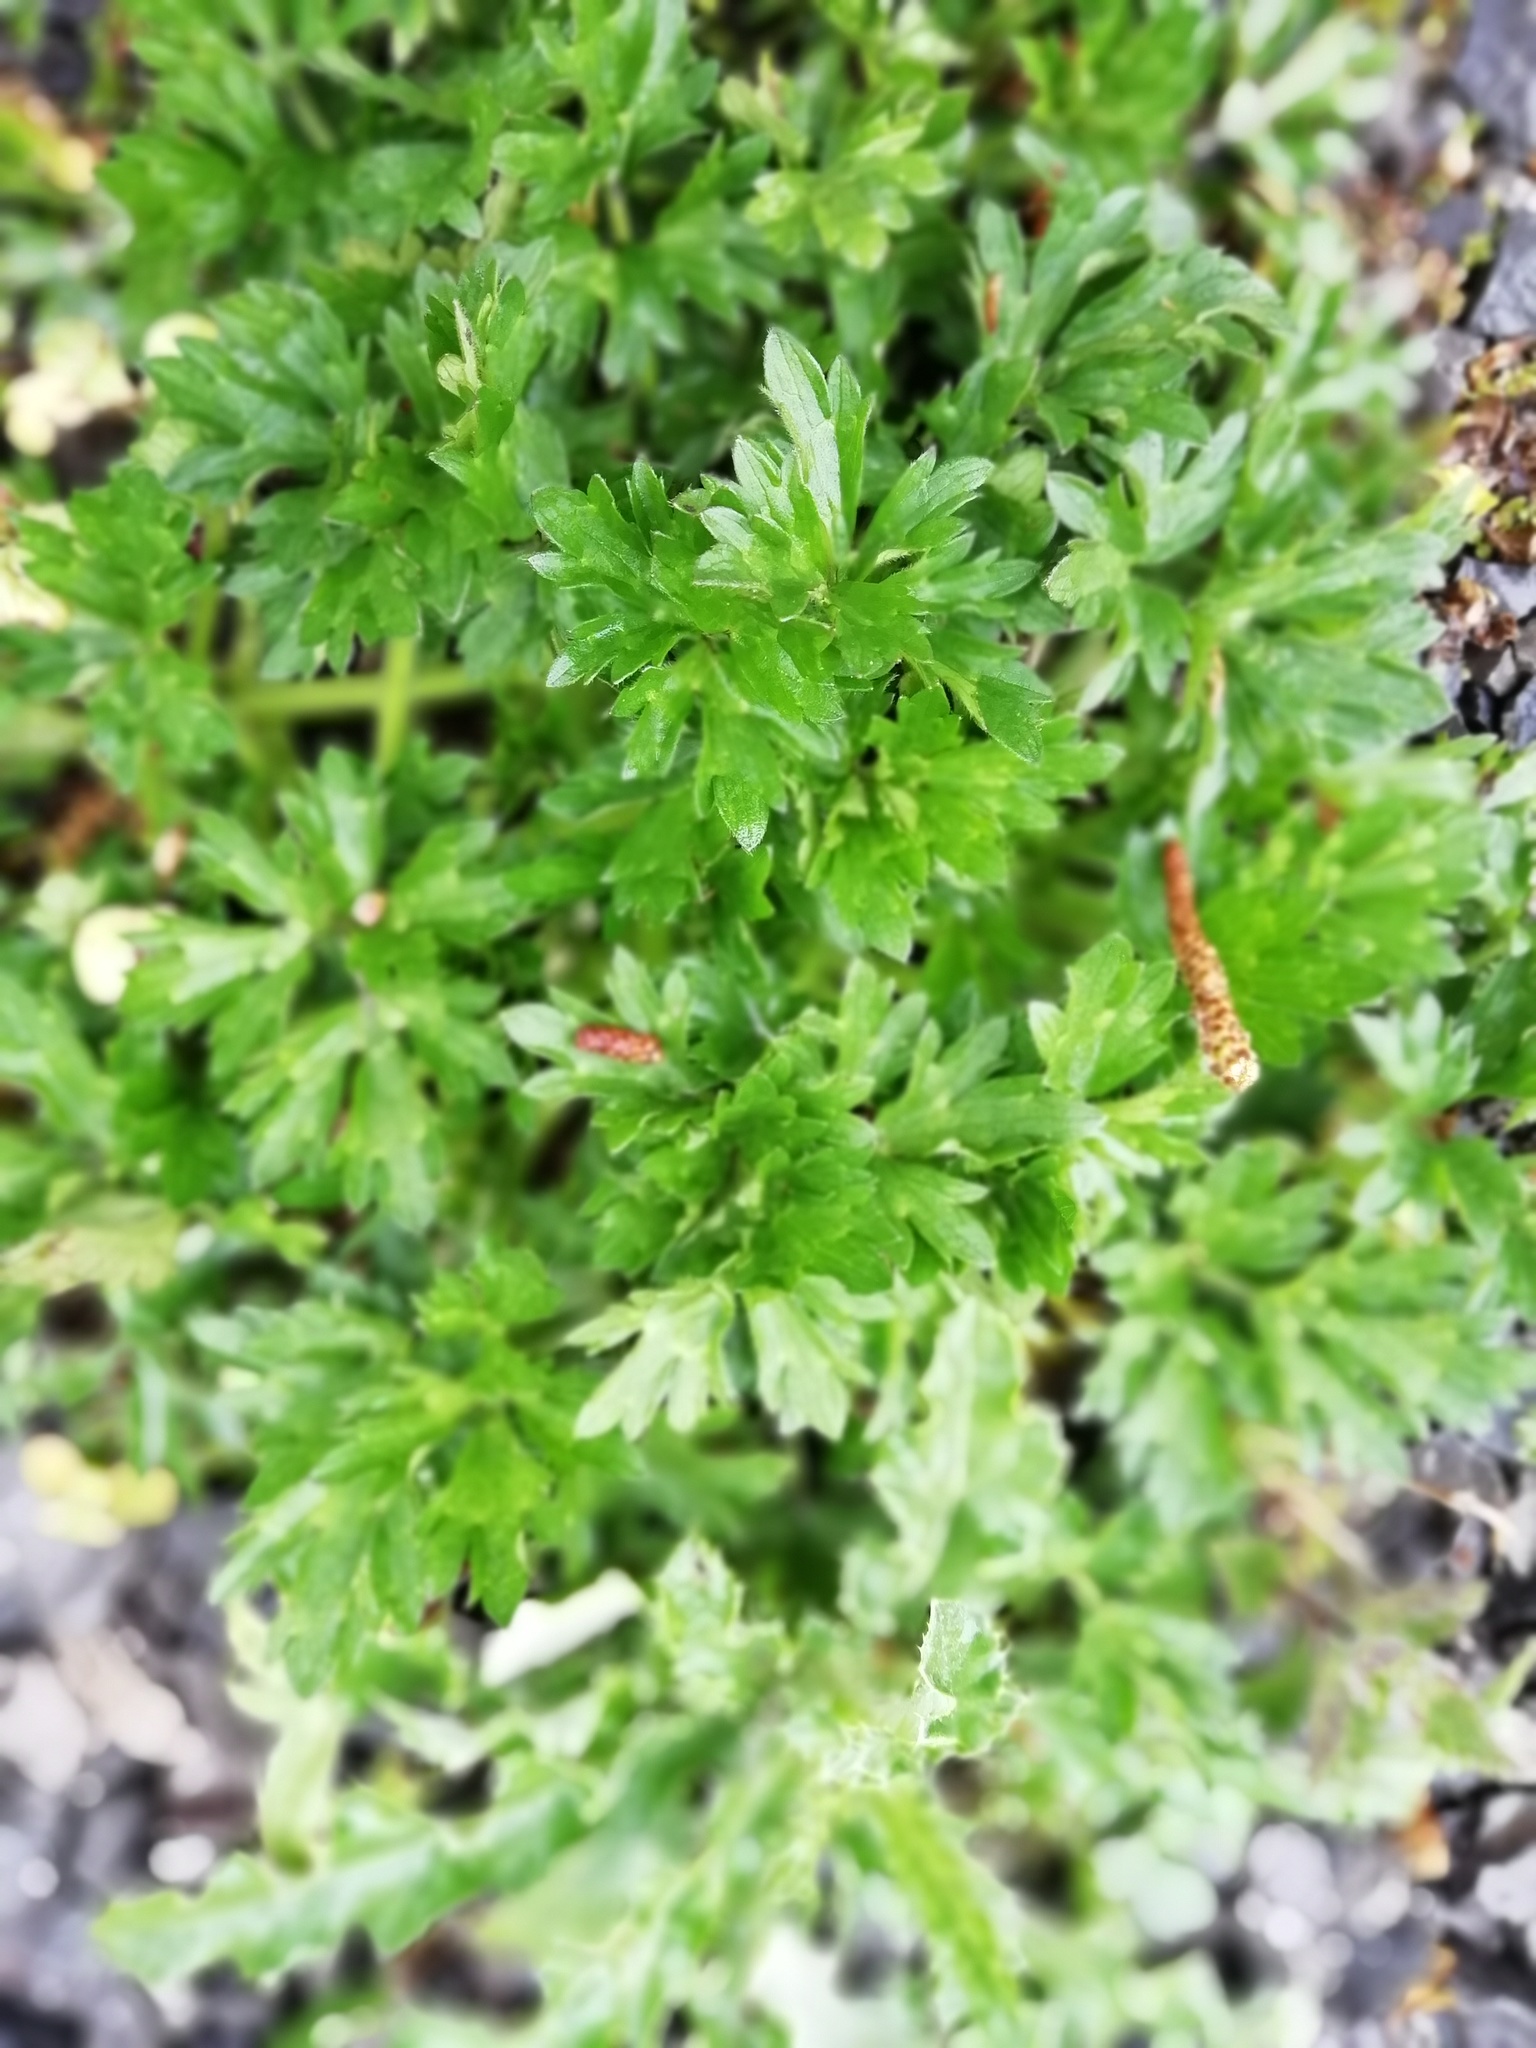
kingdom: Plantae
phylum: Tracheophyta
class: Magnoliopsida
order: Ranunculales
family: Ranunculaceae
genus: Ranunculus
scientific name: Ranunculus repens
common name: Creeping buttercup
